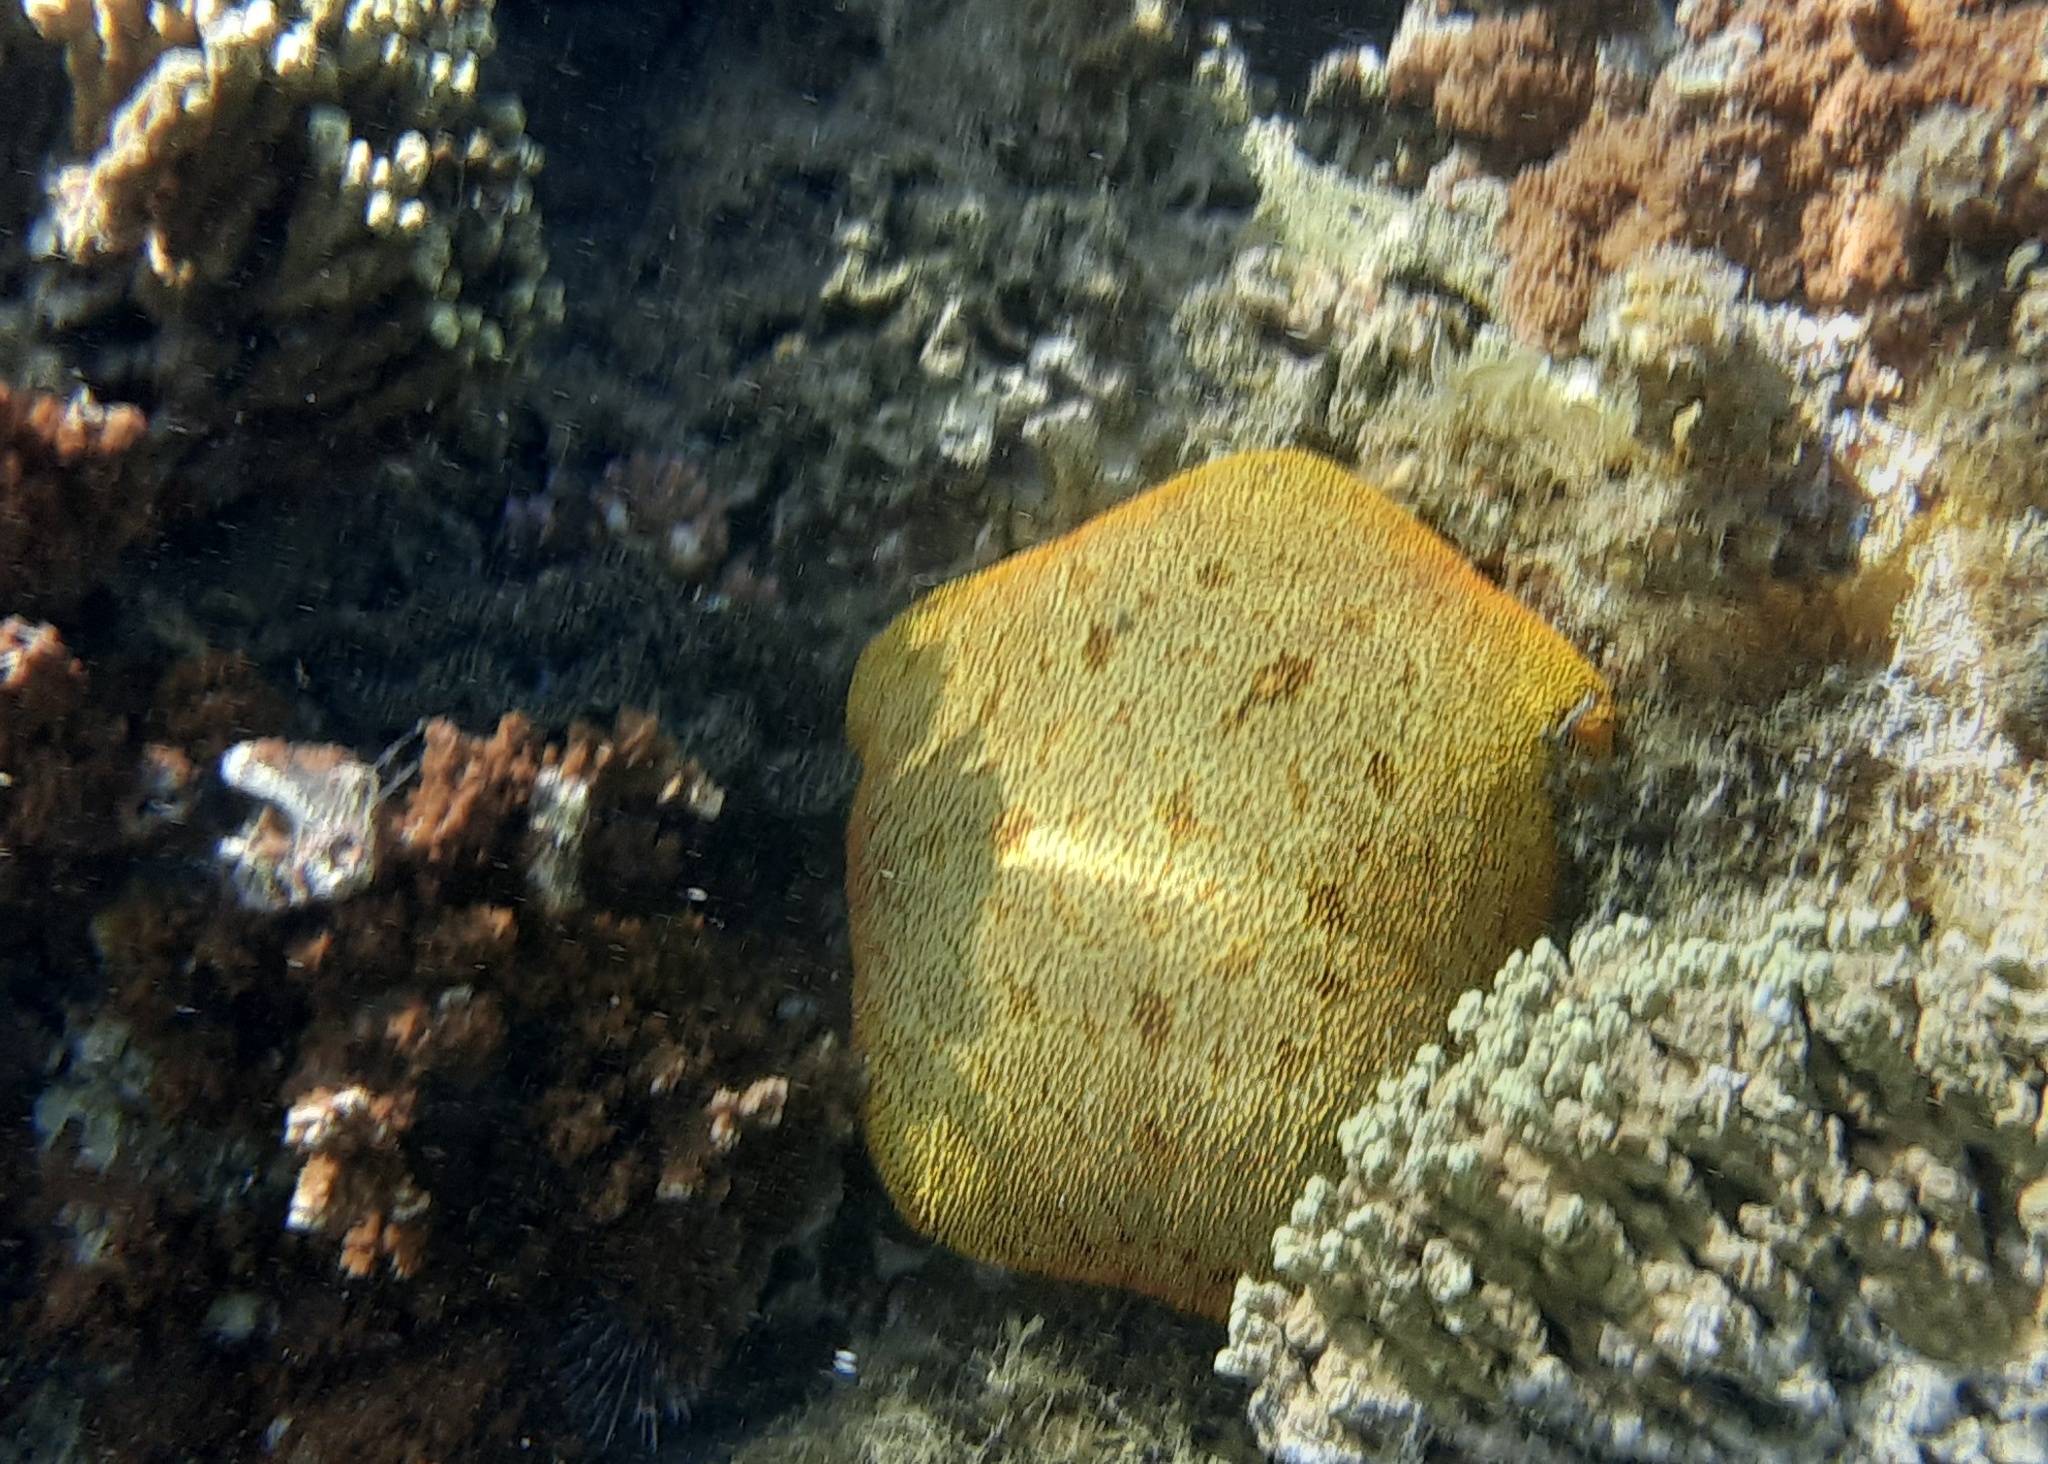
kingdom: Animalia
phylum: Echinodermata
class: Asteroidea
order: Valvatida
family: Oreasteridae
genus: Culcita
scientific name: Culcita novaeguineae
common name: Cushion star
